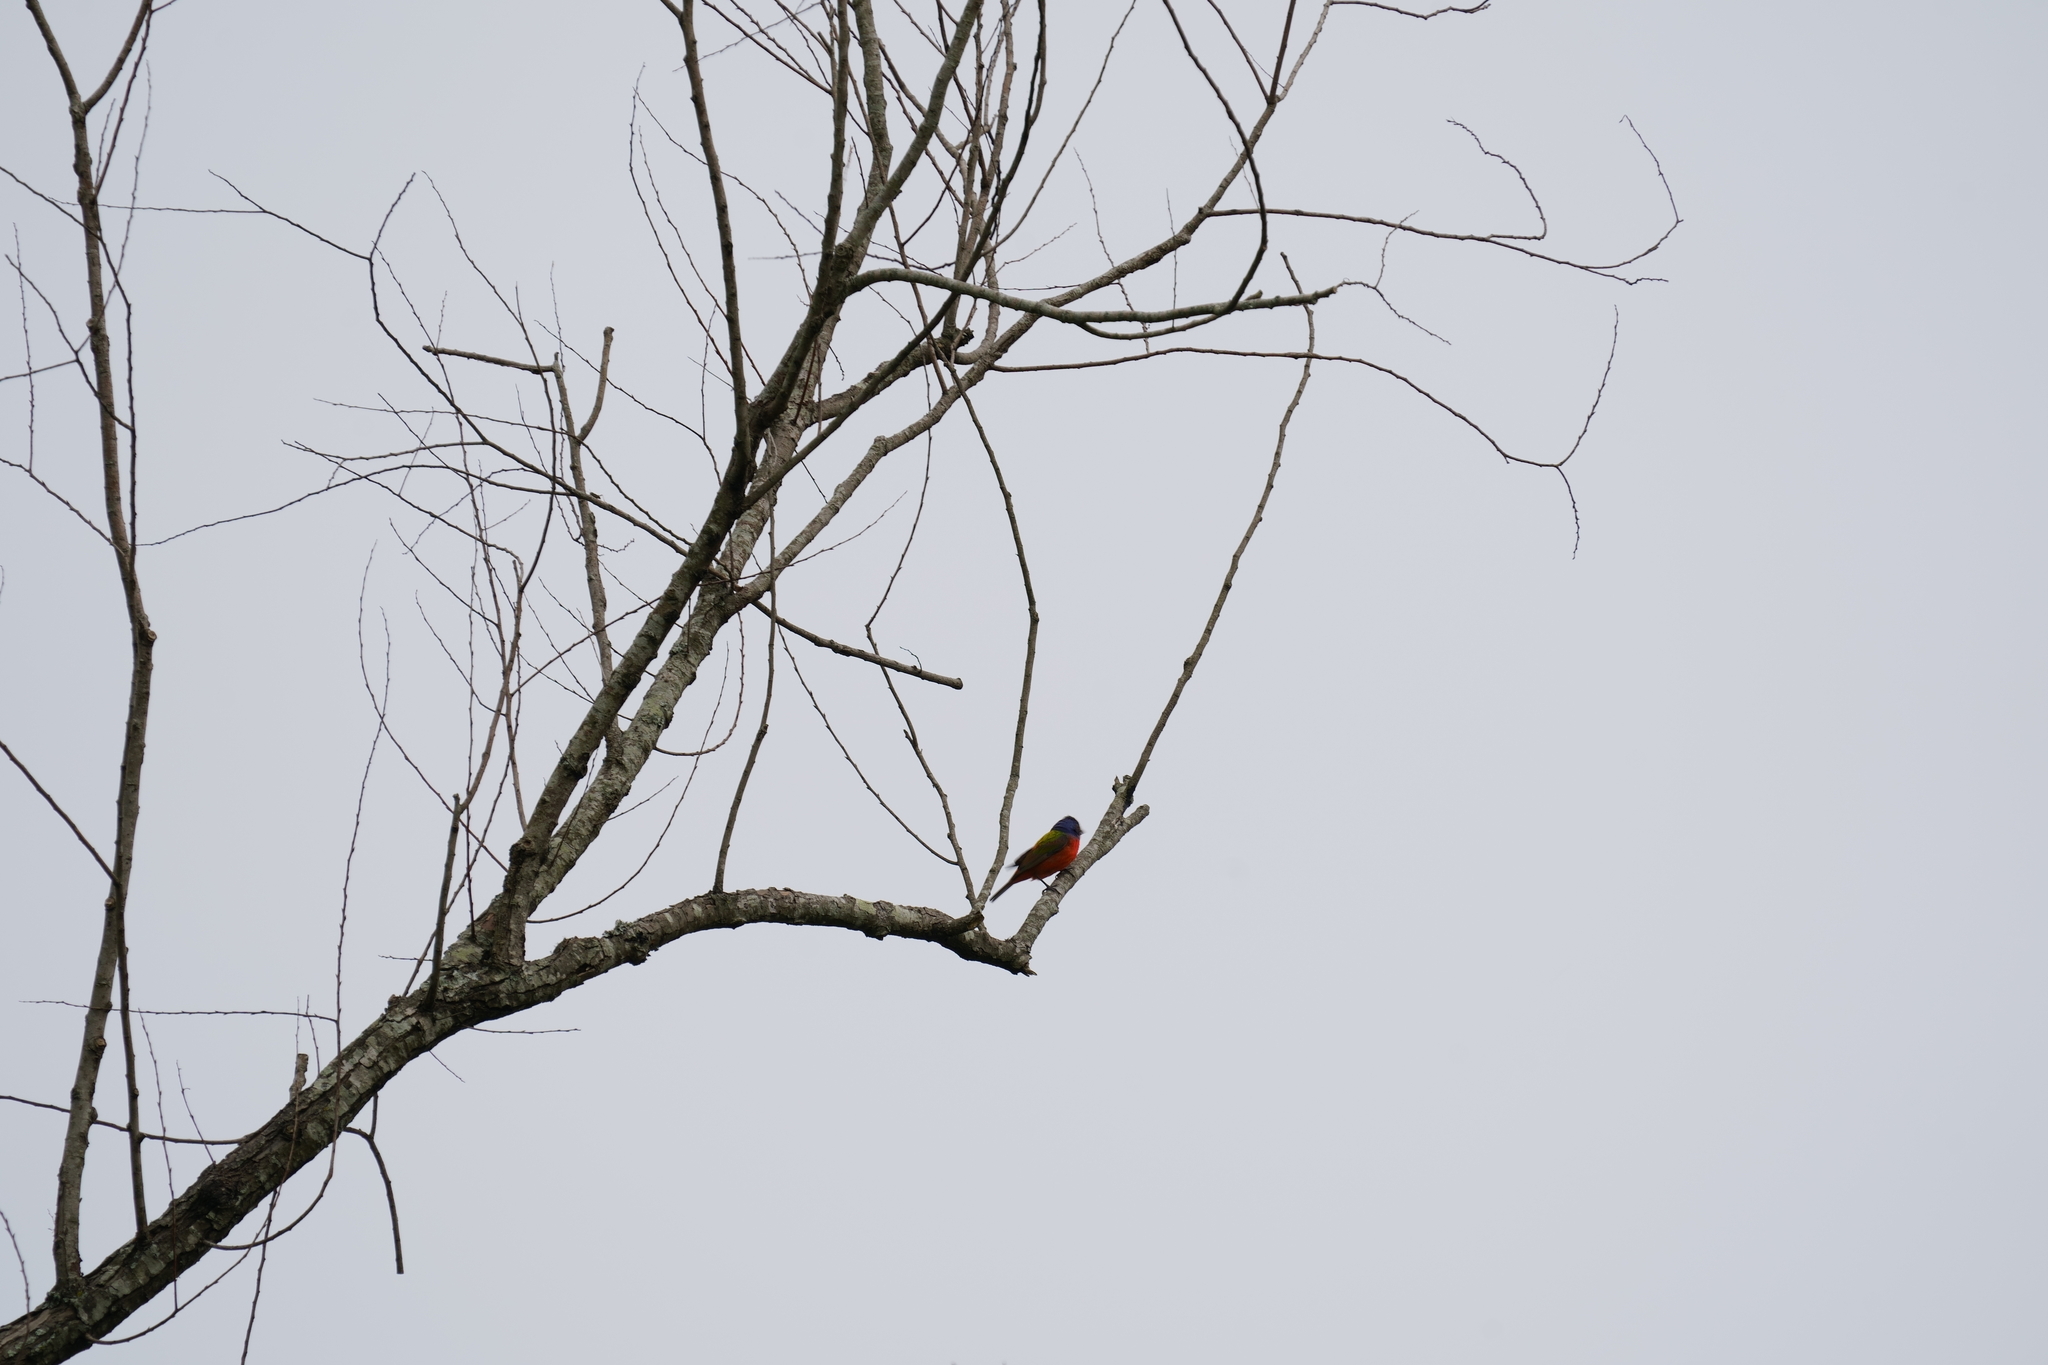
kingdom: Animalia
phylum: Chordata
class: Aves
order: Passeriformes
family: Cardinalidae
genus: Passerina
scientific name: Passerina ciris
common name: Painted bunting
